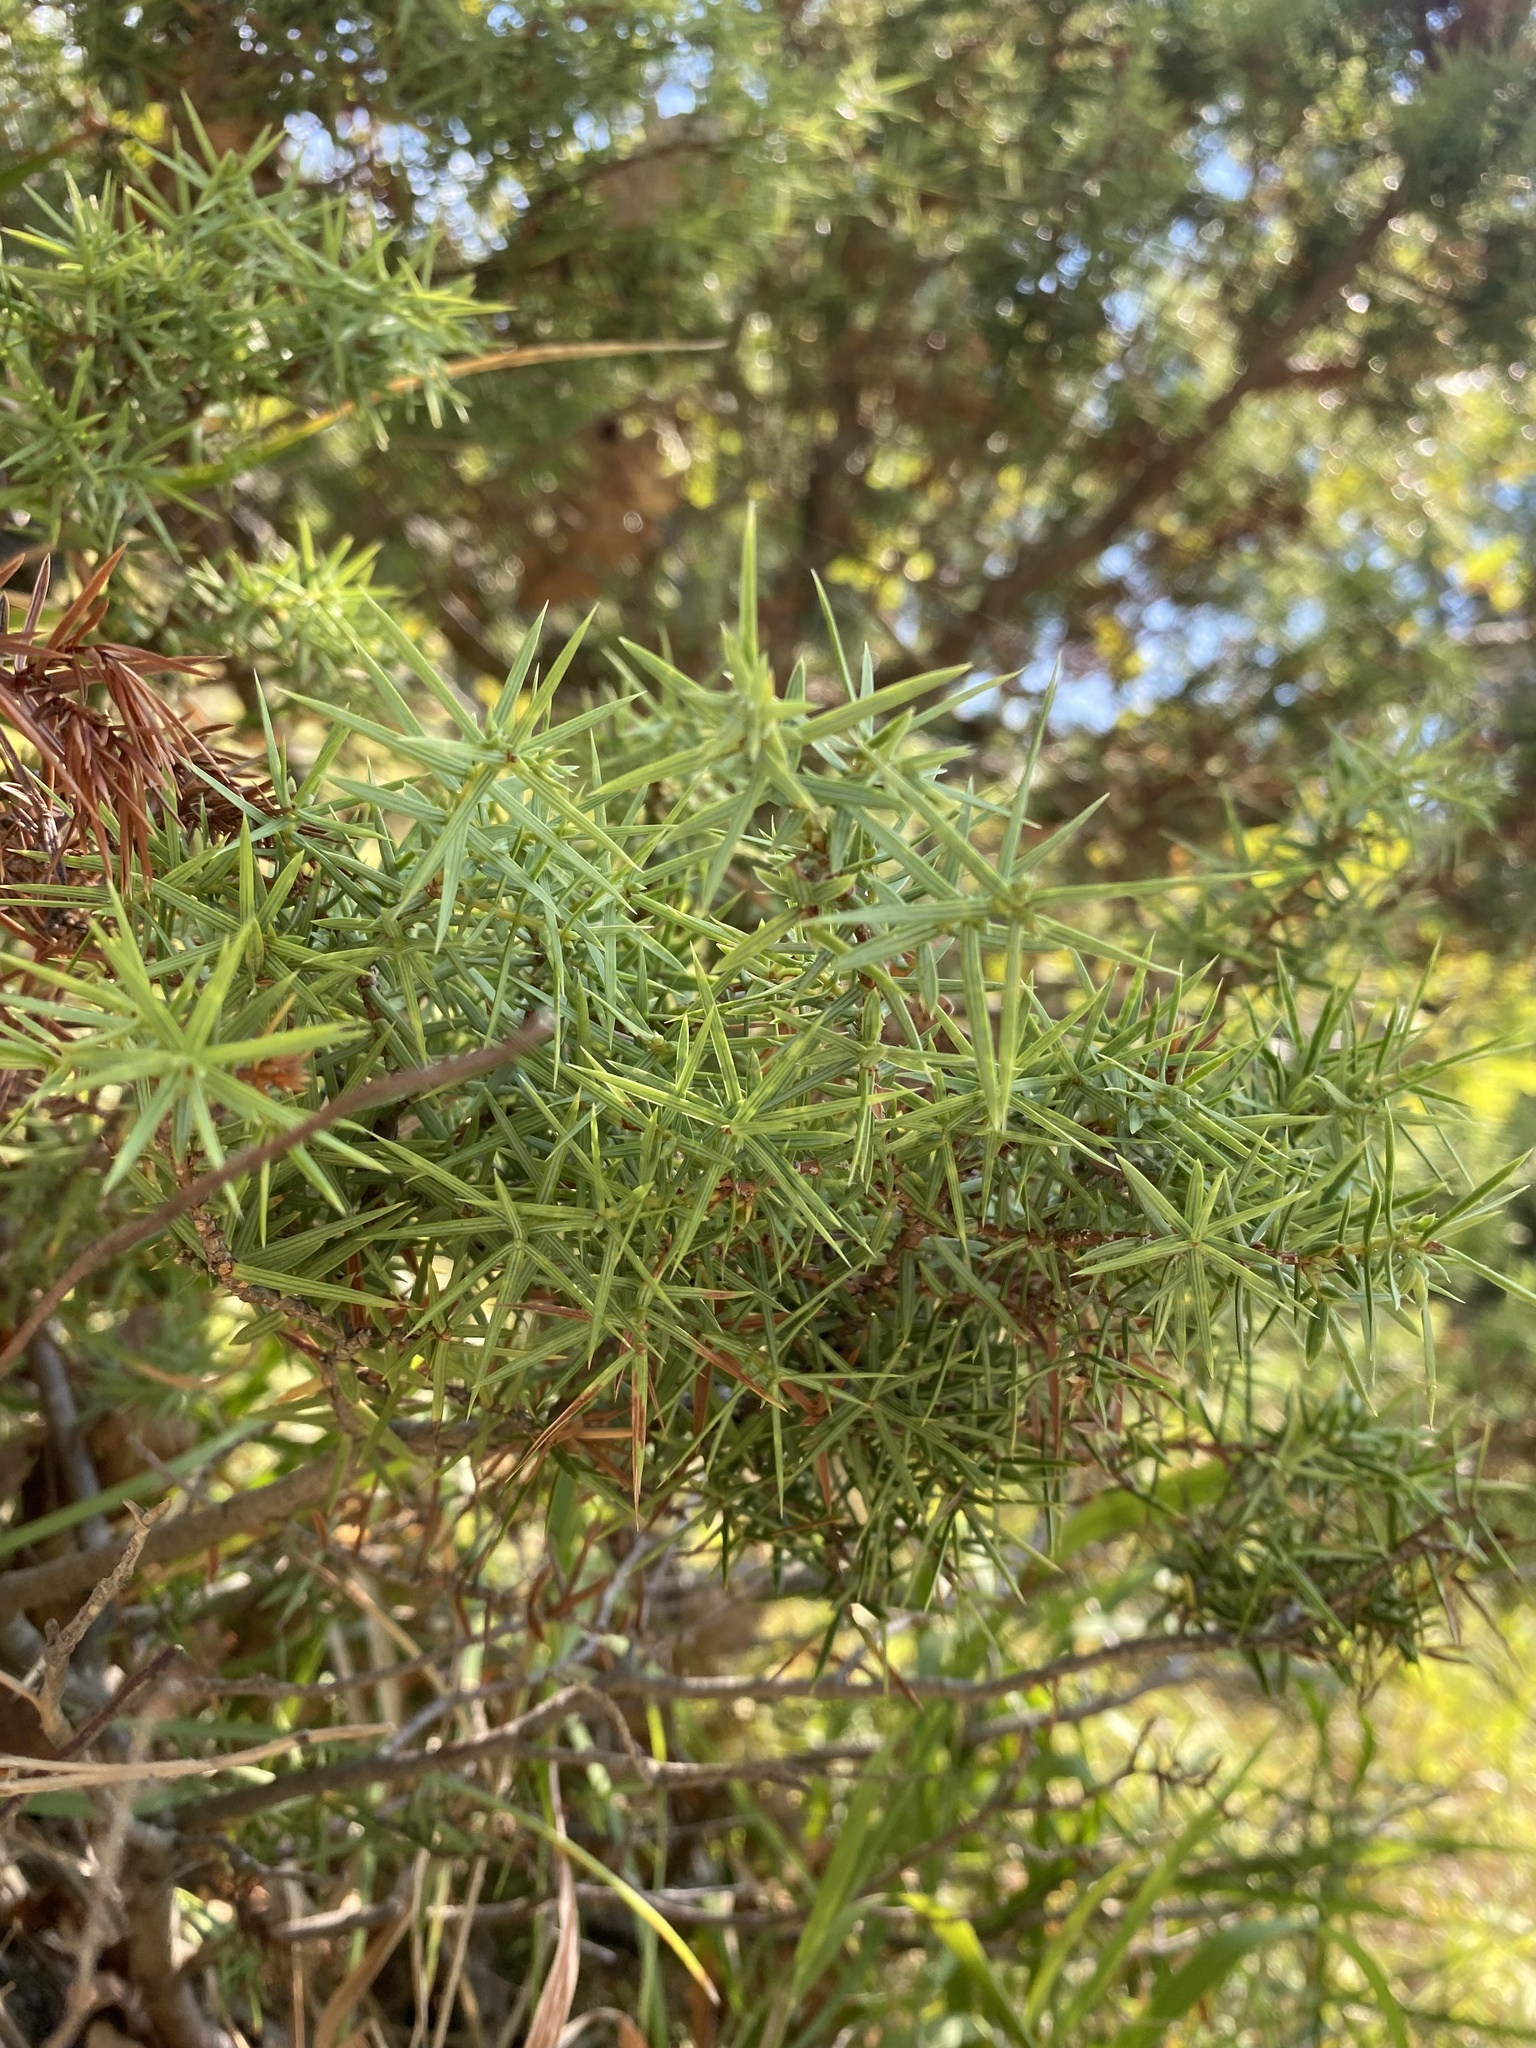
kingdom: Plantae
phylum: Tracheophyta
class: Pinopsida
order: Pinales
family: Cupressaceae
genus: Juniperus
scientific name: Juniperus oxycedrus
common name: Prickly juniper
